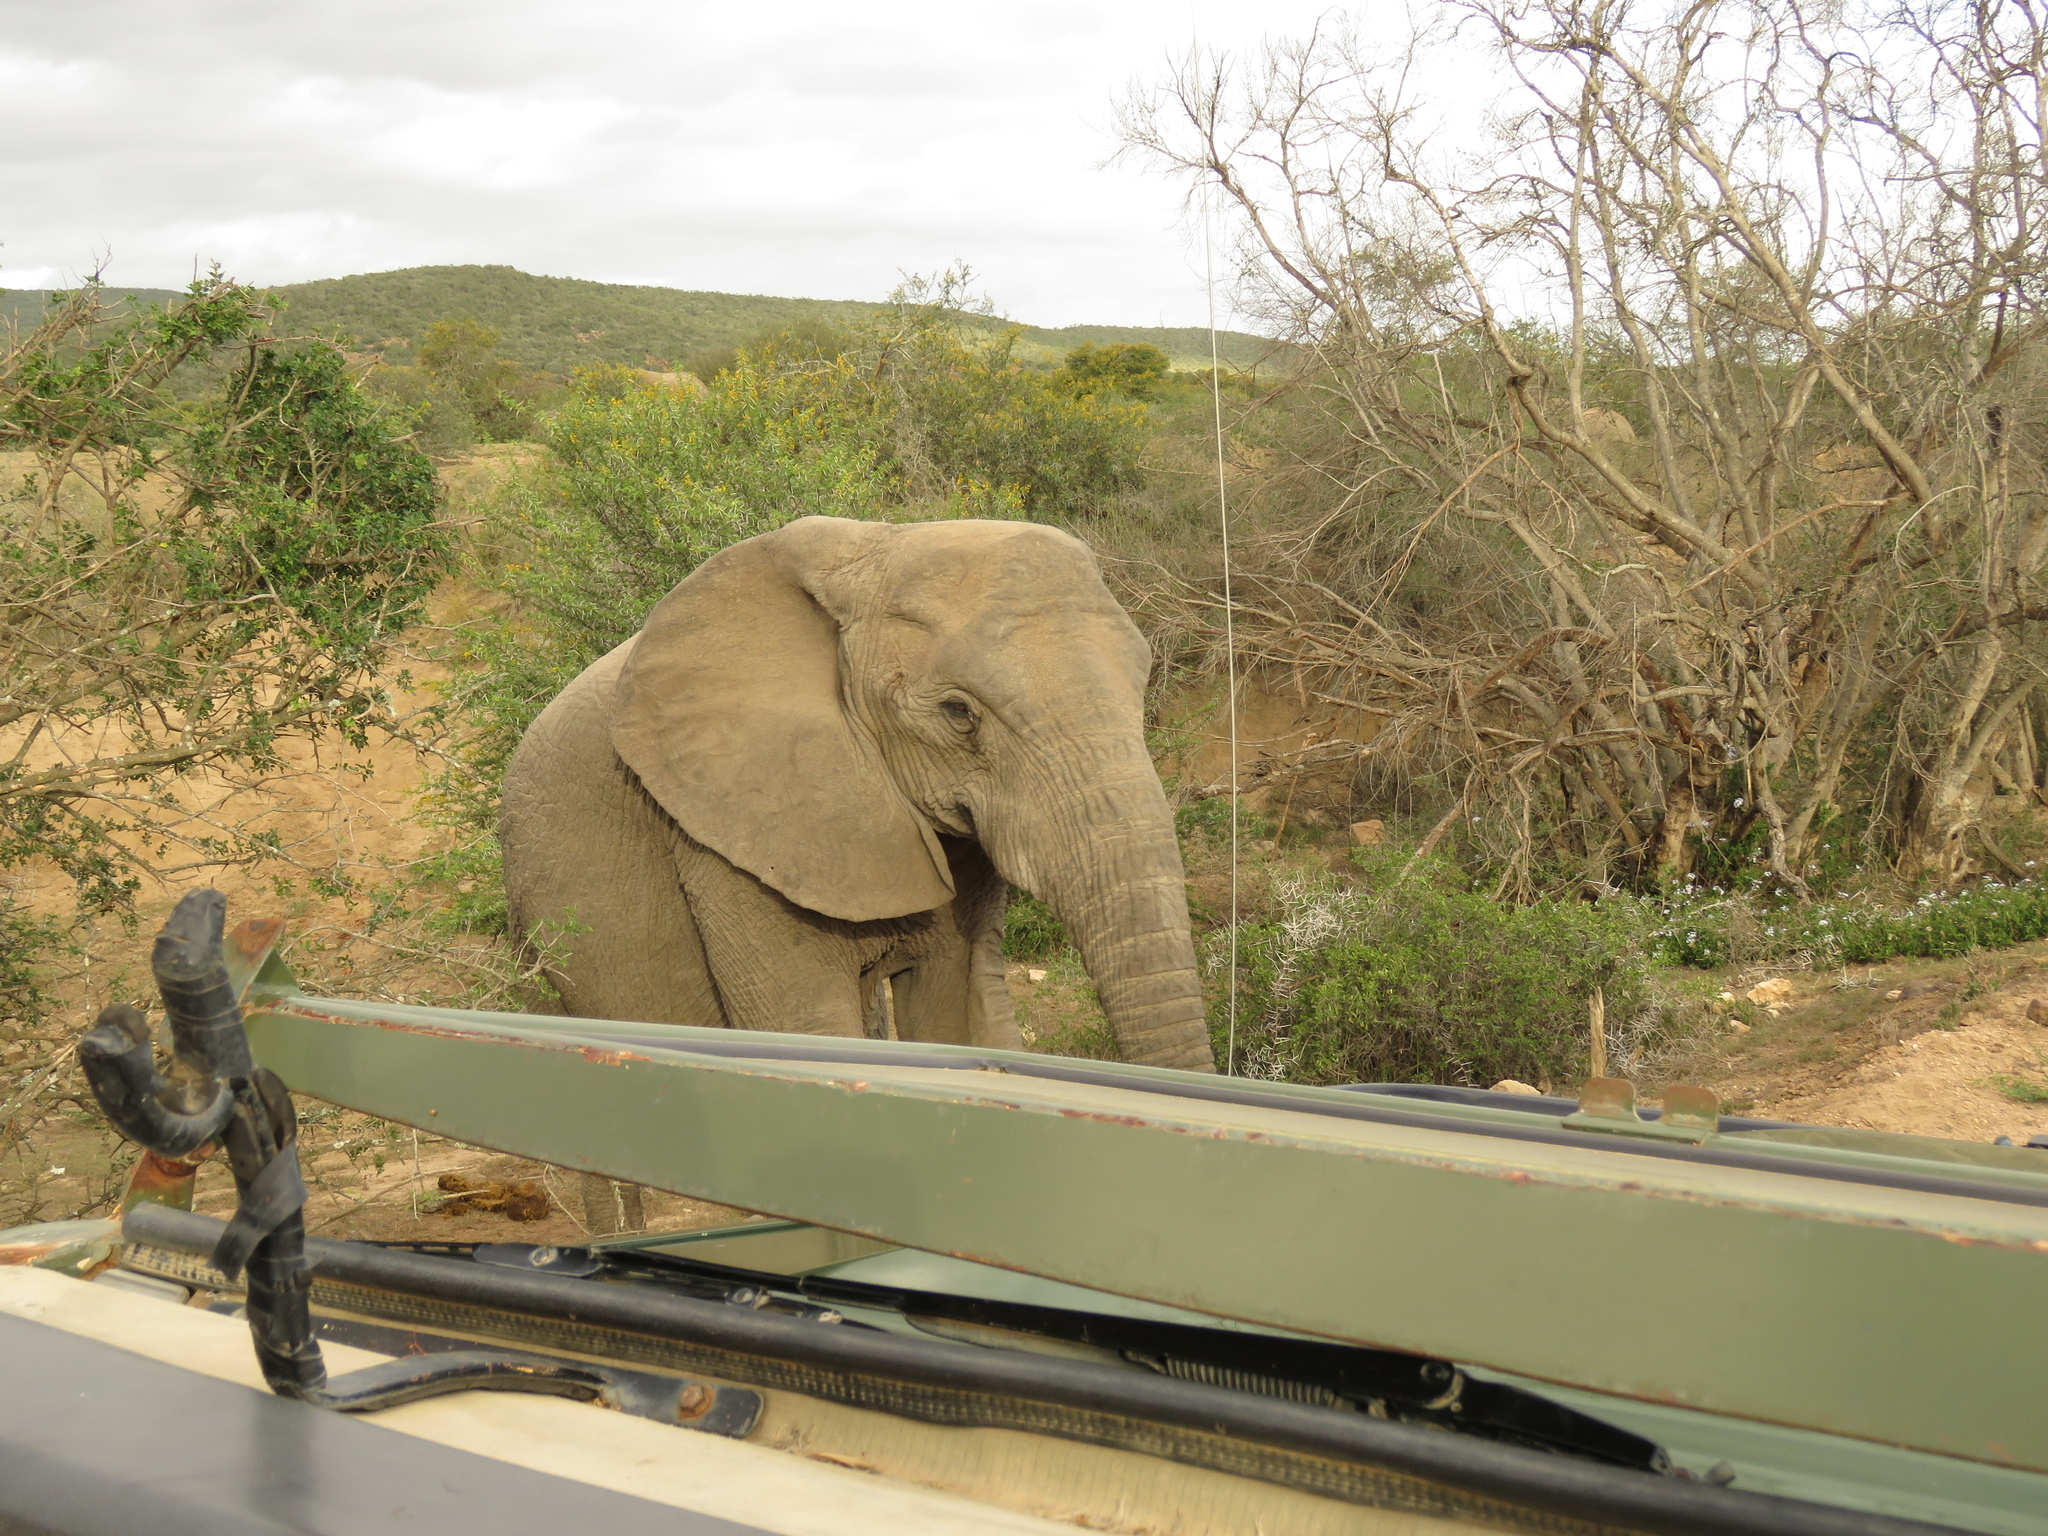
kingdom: Animalia
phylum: Chordata
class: Mammalia
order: Proboscidea
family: Elephantidae
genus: Loxodonta
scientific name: Loxodonta africana
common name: African elephant
